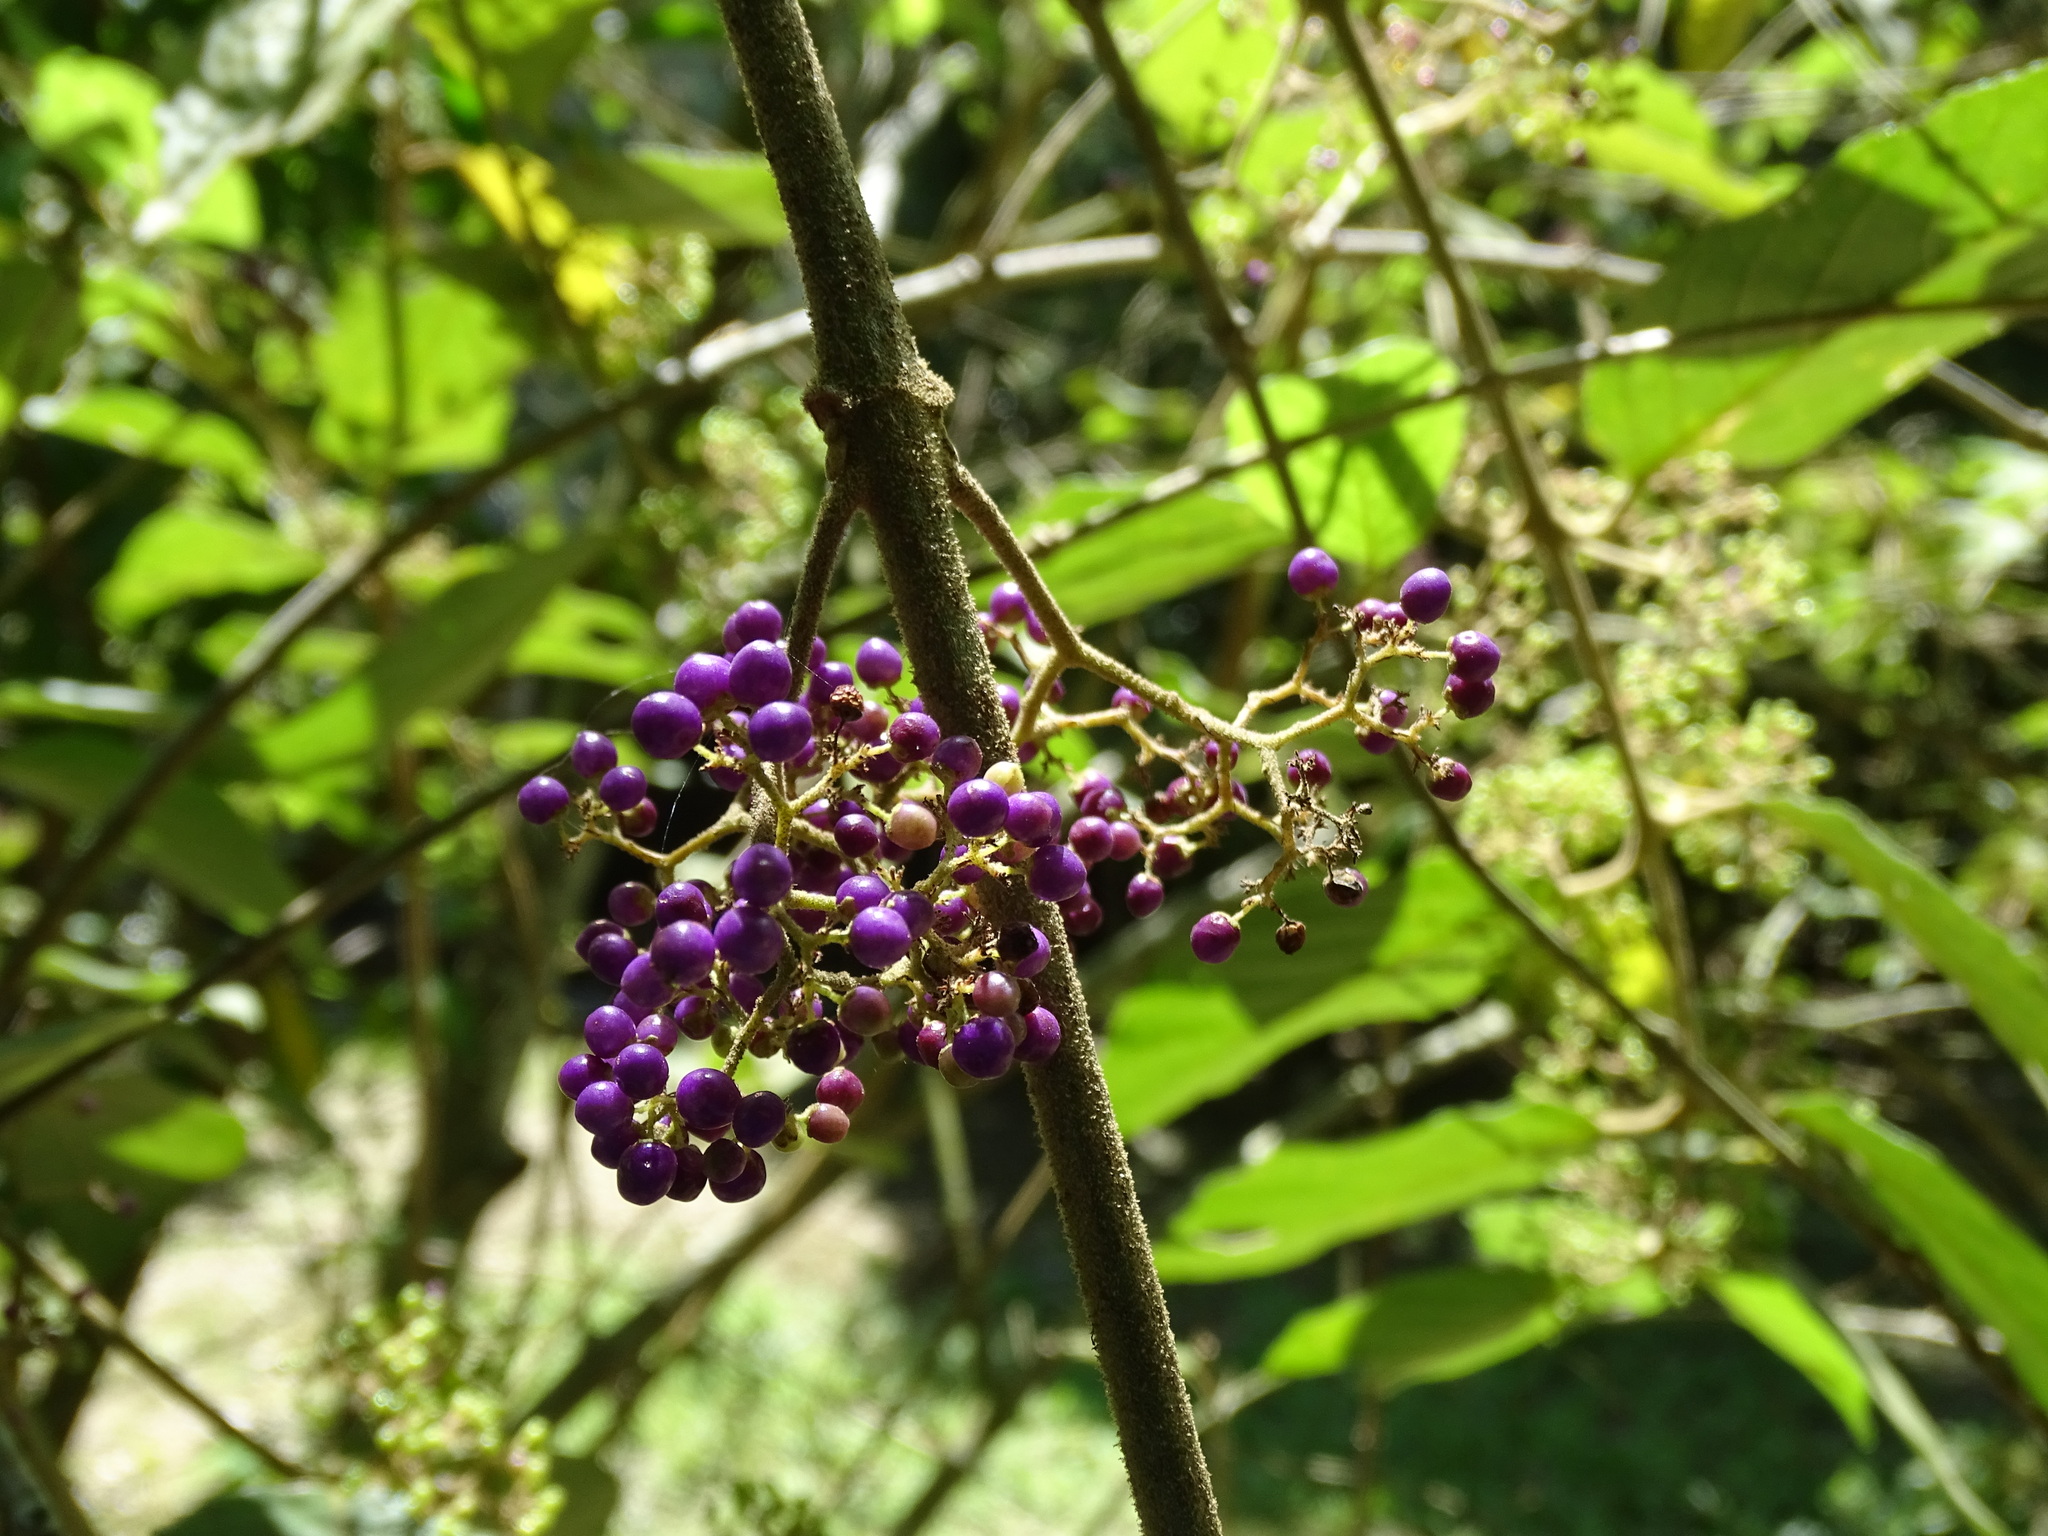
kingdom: Plantae
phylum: Tracheophyta
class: Magnoliopsida
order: Lamiales
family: Lamiaceae
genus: Callicarpa
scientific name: Callicarpa pedunculata
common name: Velvetleaf
